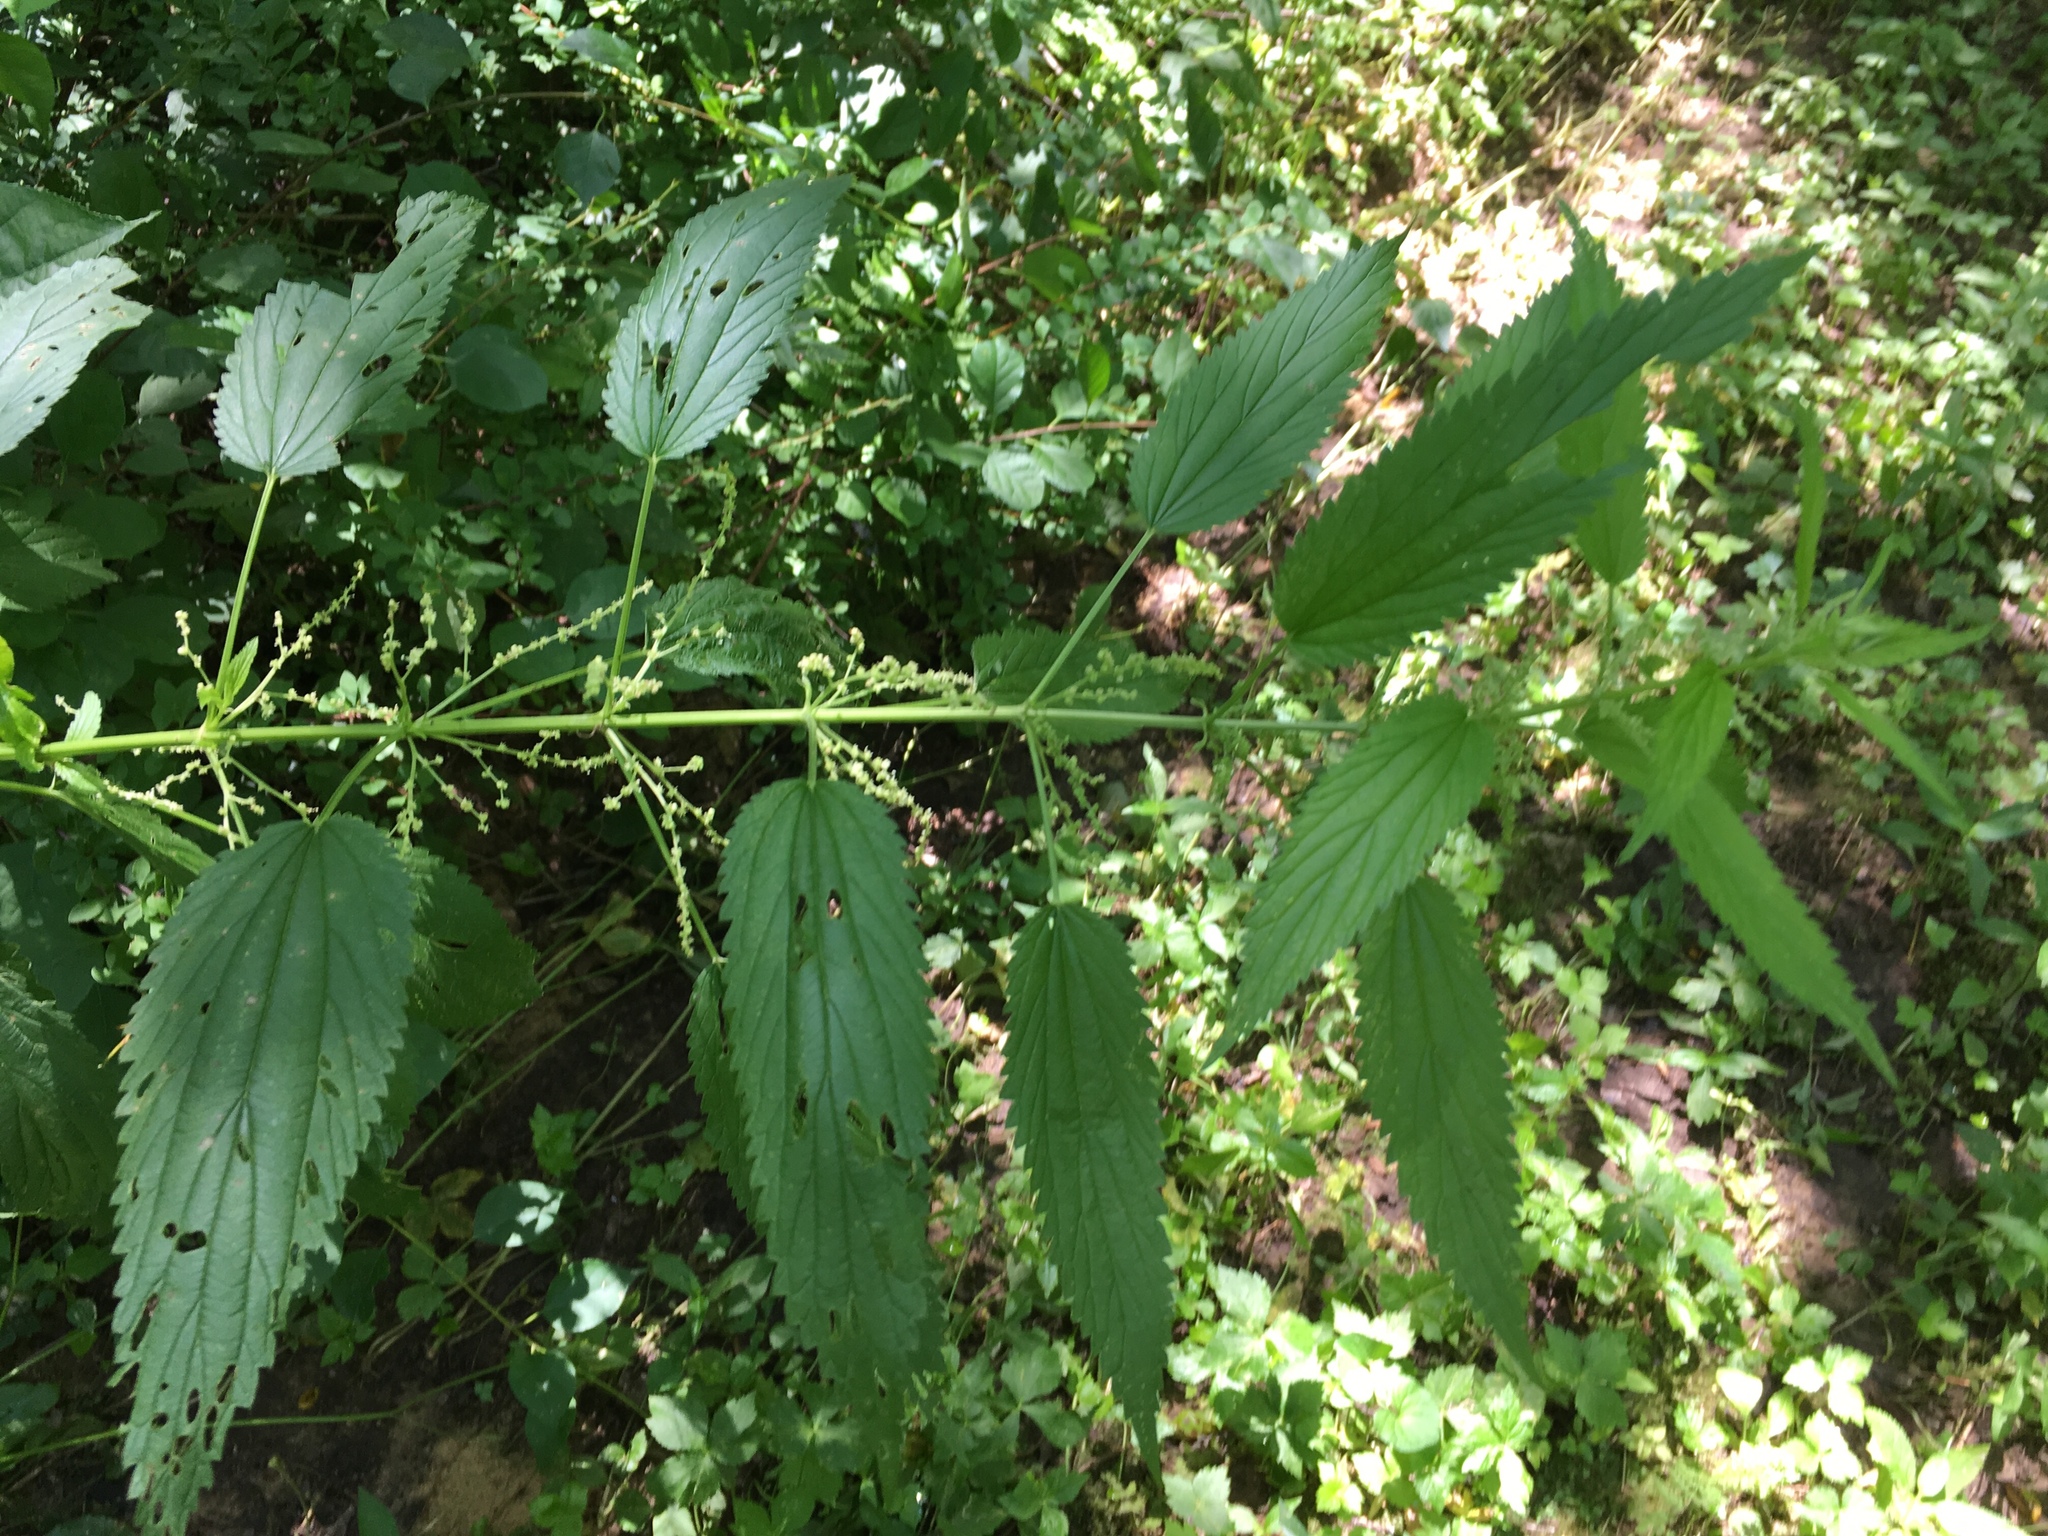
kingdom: Plantae
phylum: Tracheophyta
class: Magnoliopsida
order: Rosales
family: Urticaceae
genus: Urtica
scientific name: Urtica dioica
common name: Common nettle
